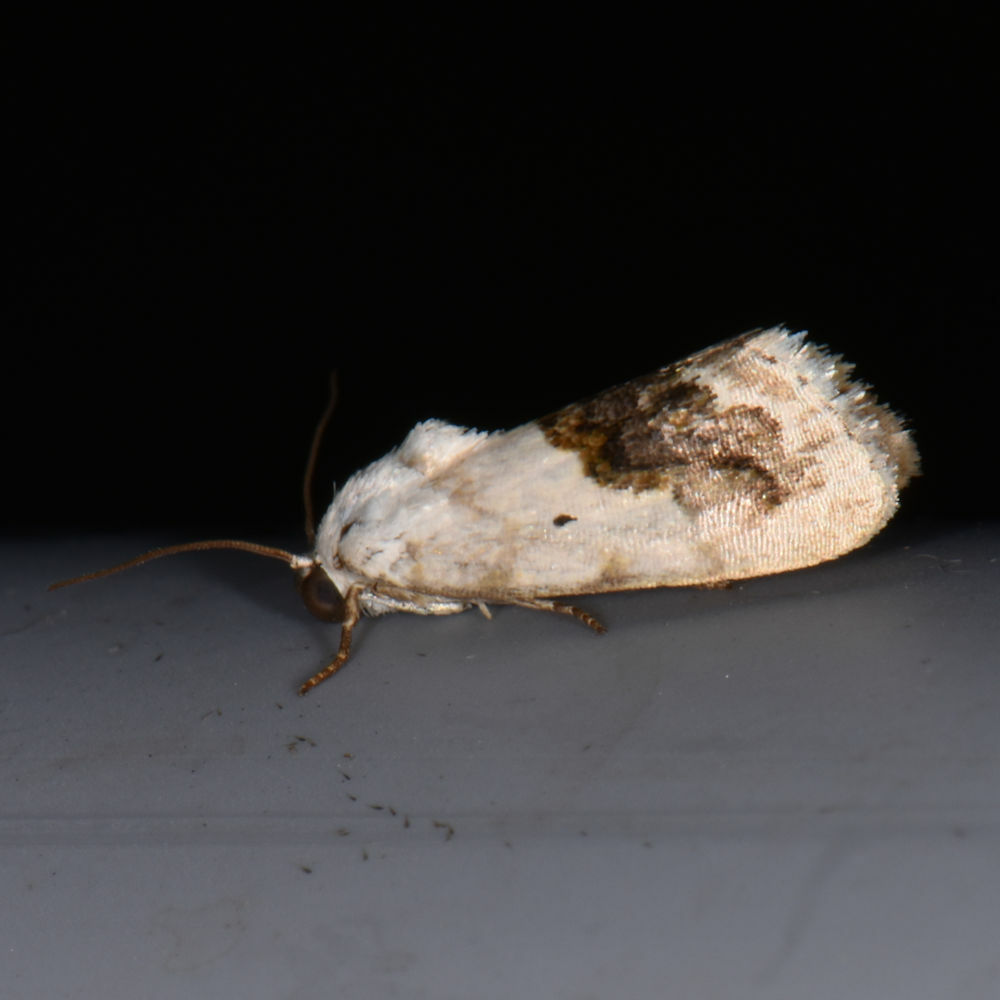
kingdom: Animalia
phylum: Arthropoda
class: Insecta
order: Lepidoptera
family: Noctuidae
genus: Acontia
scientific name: Acontia erastrioides
